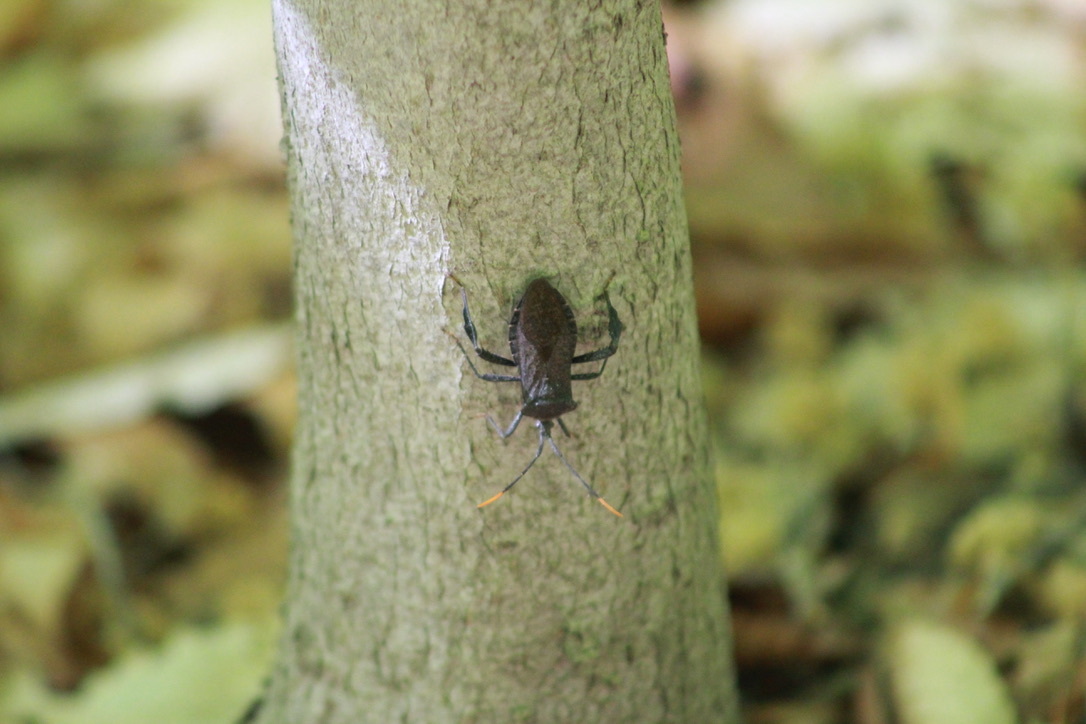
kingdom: Animalia
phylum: Arthropoda
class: Insecta
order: Hemiptera
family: Coreidae
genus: Acanthocephala
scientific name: Acanthocephala terminalis
